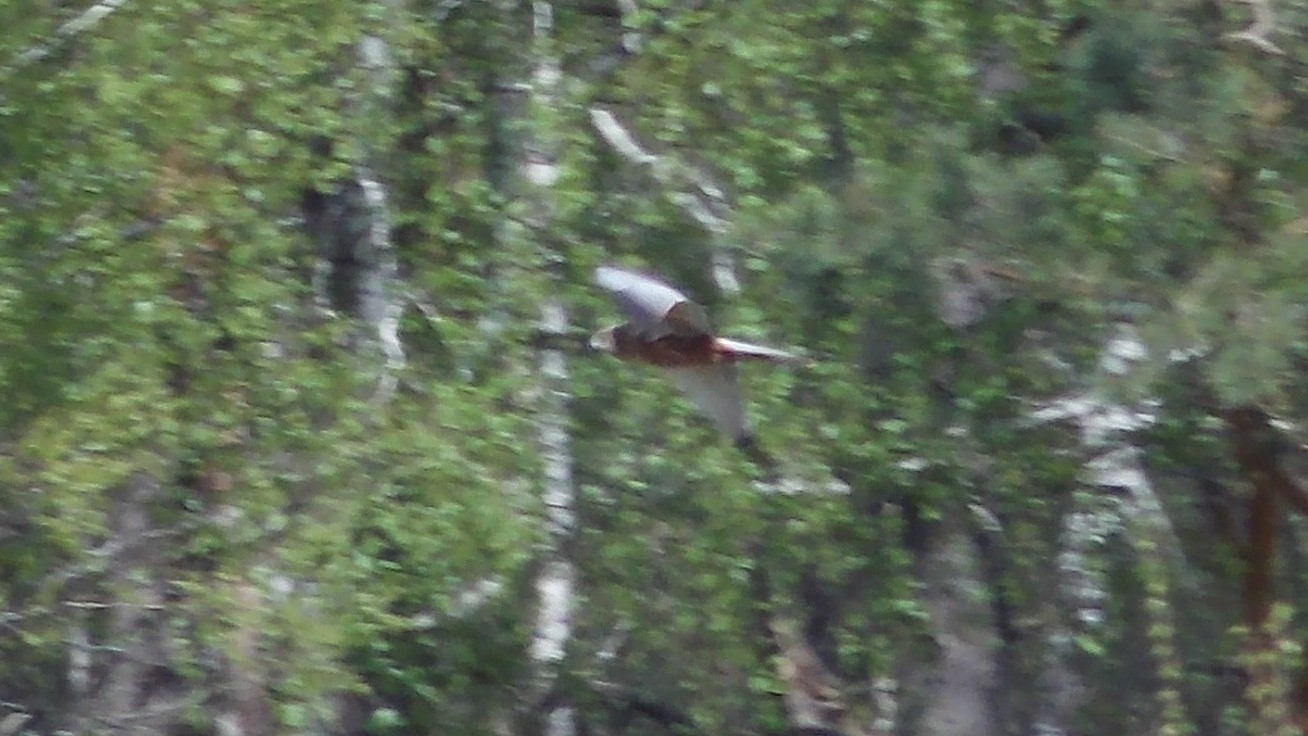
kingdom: Animalia
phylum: Chordata
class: Aves
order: Accipitriformes
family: Accipitridae
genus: Circus
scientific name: Circus aeruginosus
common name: Western marsh harrier
